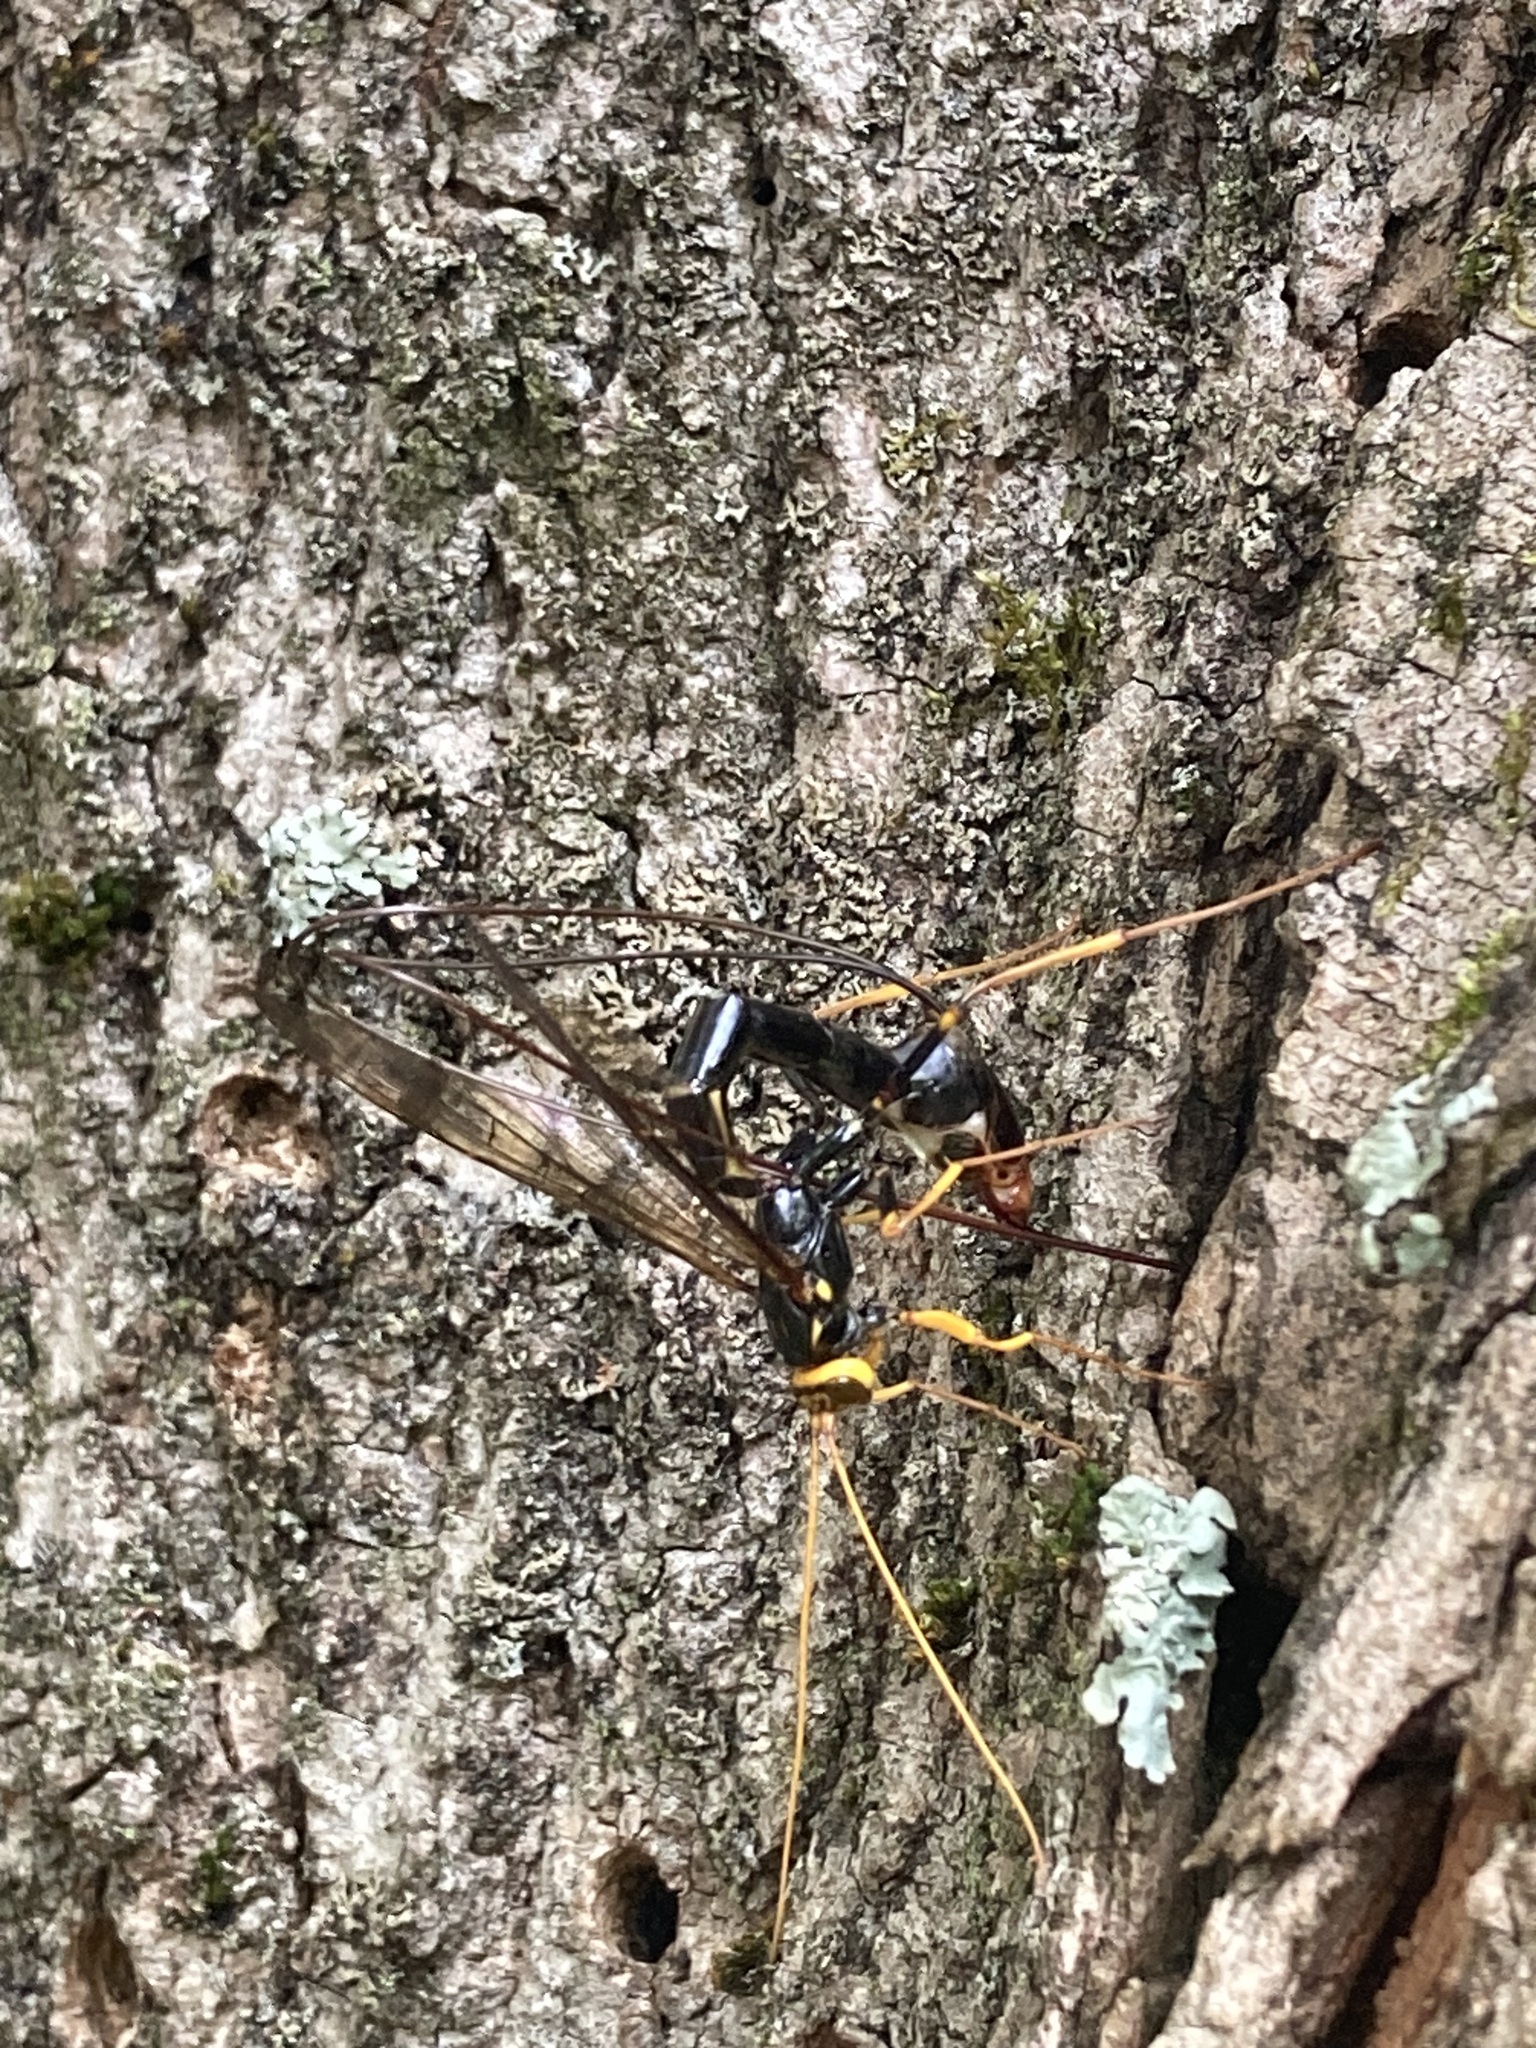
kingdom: Animalia
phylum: Arthropoda
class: Insecta
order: Hymenoptera
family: Ichneumonidae
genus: Megarhyssa
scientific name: Megarhyssa atrata
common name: Black giant ichneumonid wasp
